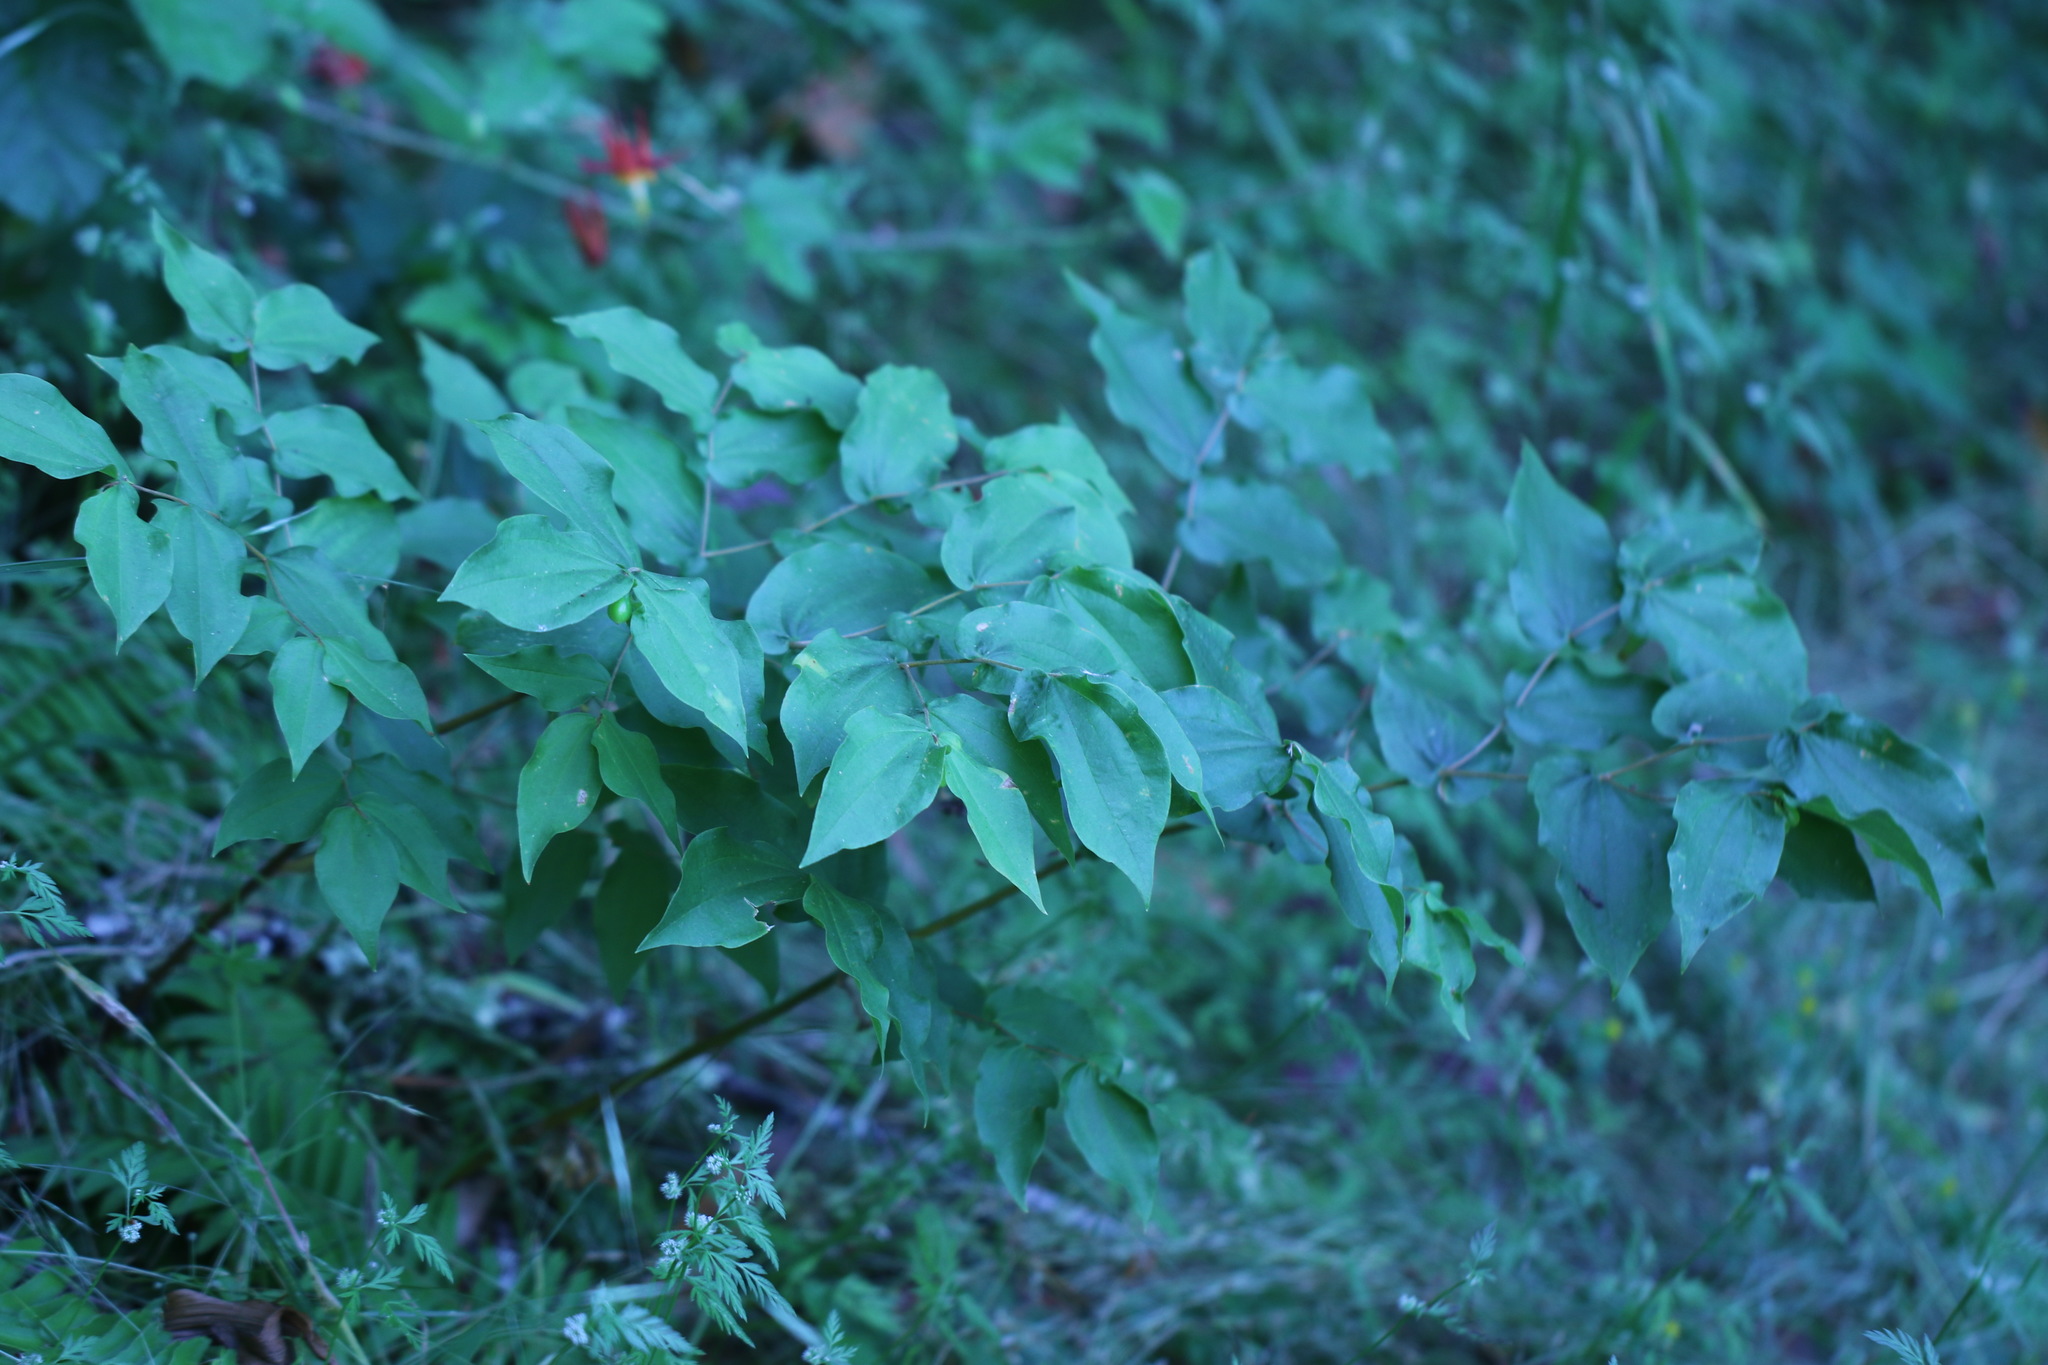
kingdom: Plantae
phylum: Tracheophyta
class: Liliopsida
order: Liliales
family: Liliaceae
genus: Prosartes
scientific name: Prosartes hookeri
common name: Fairy-bells
